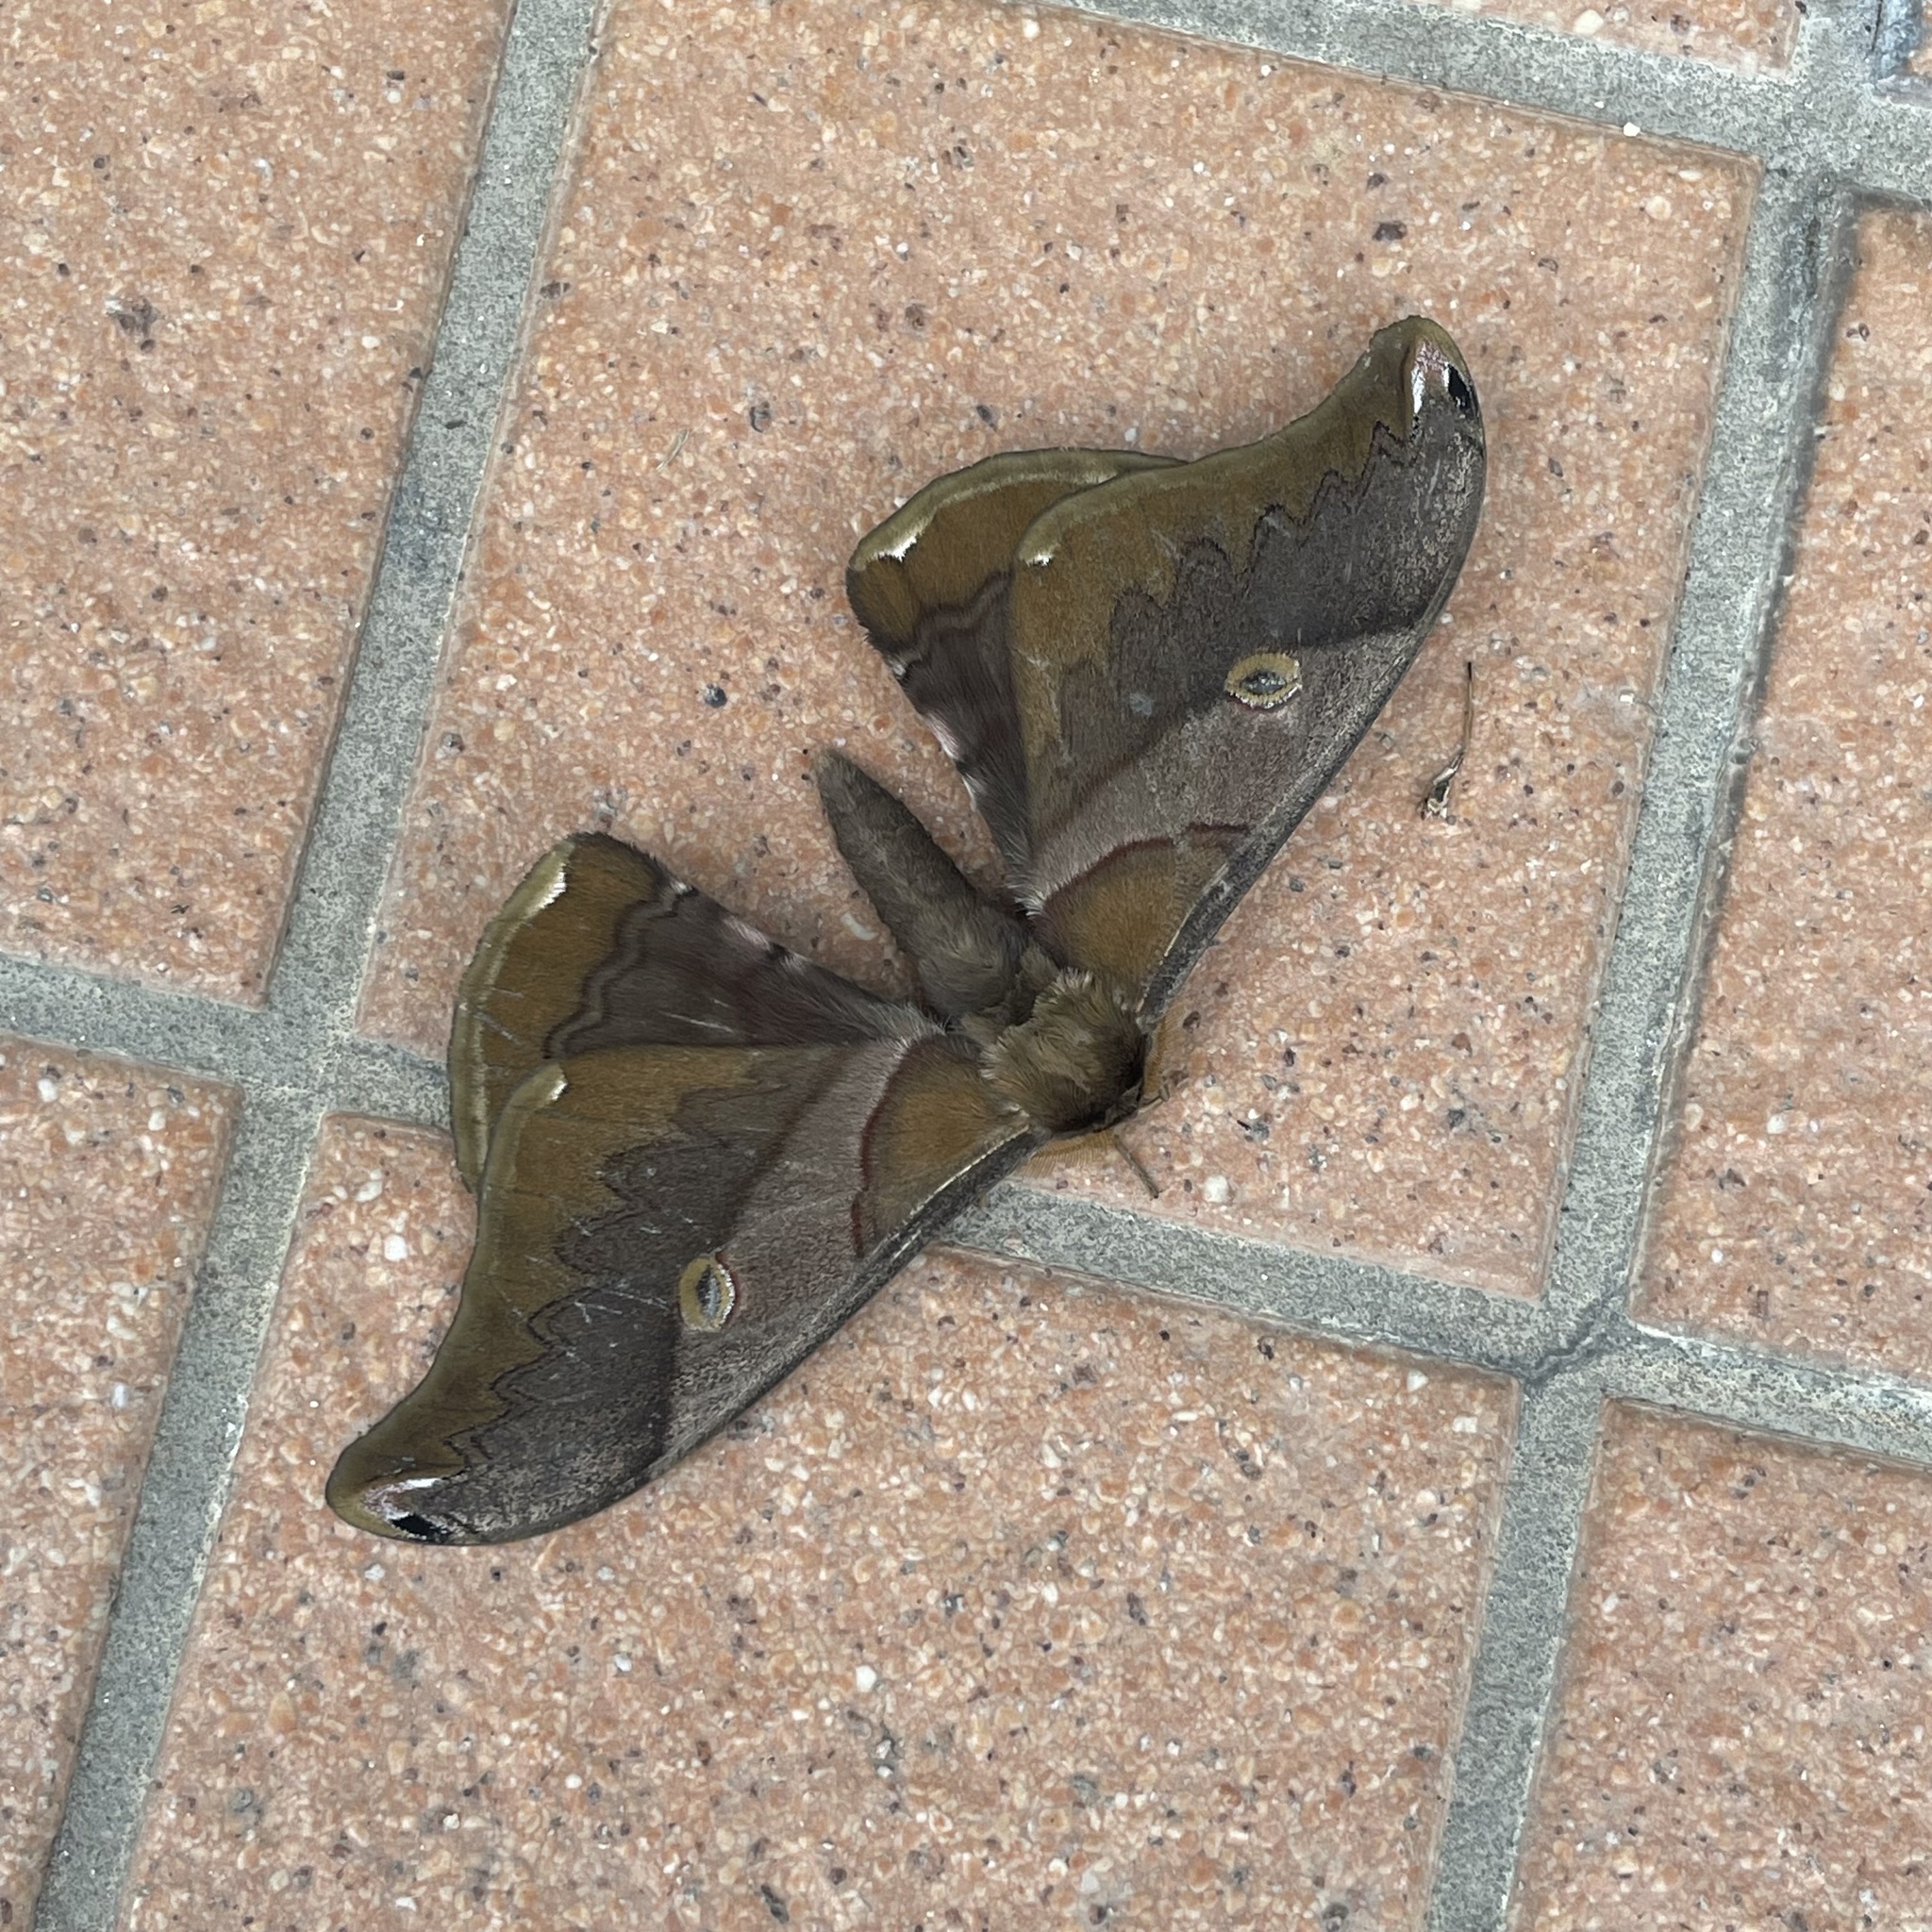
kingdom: Animalia
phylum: Arthropoda
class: Insecta
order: Lepidoptera
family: Saturniidae
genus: Saturnia
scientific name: Saturnia japonica
